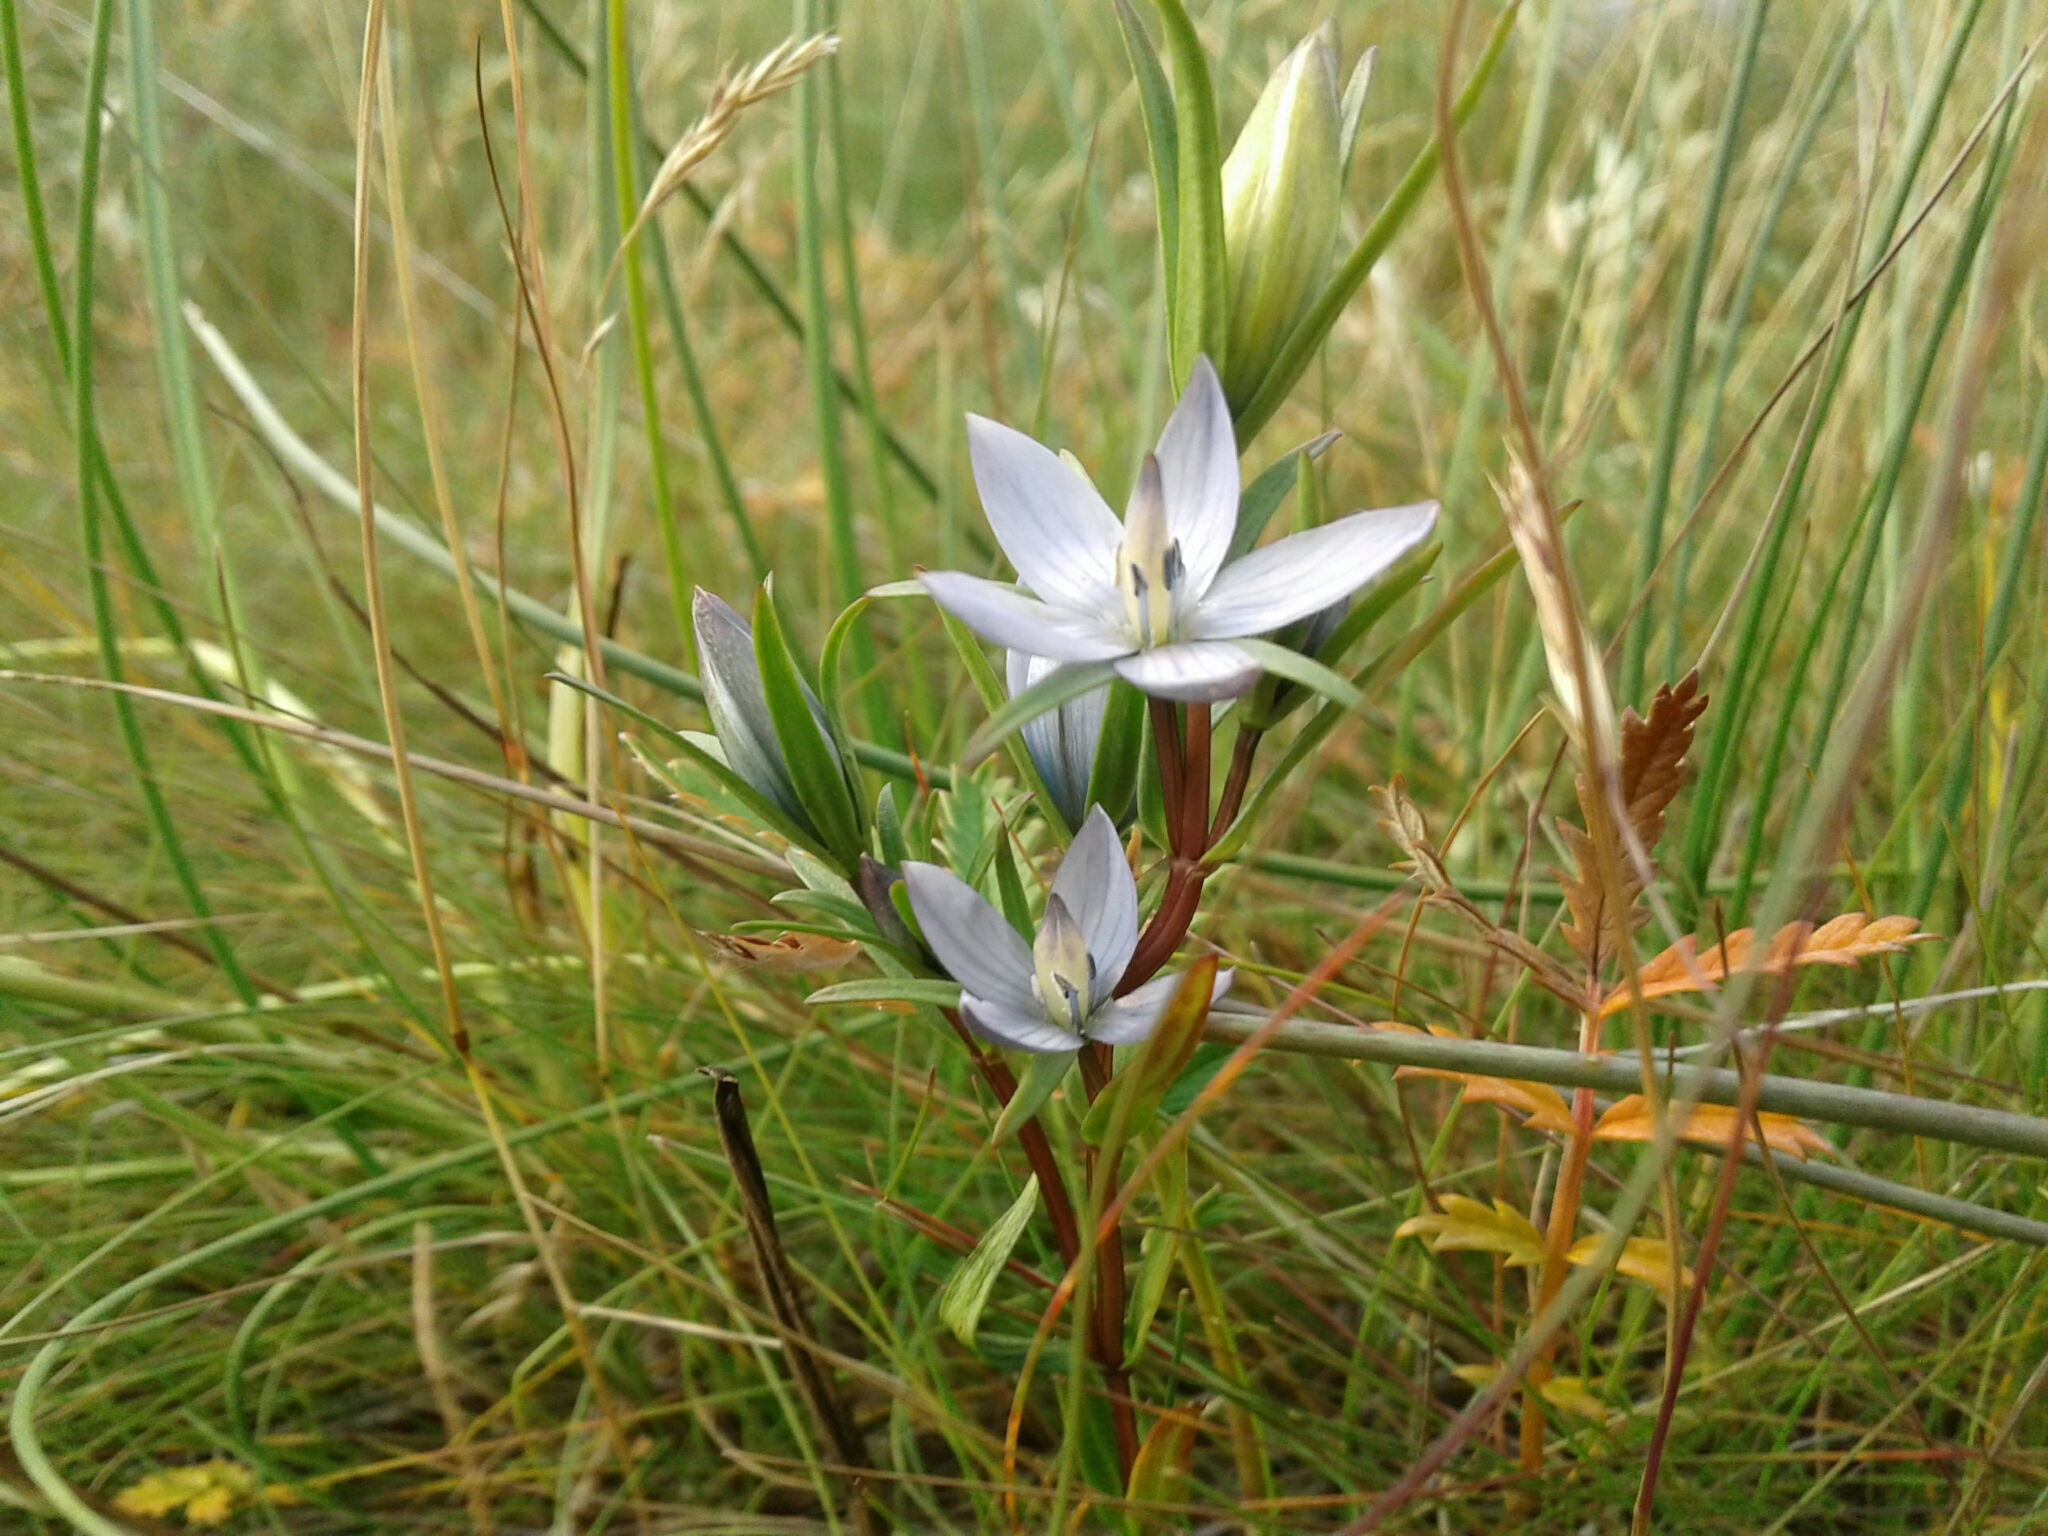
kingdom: Plantae
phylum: Tracheophyta
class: Magnoliopsida
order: Gentianales
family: Gentianaceae
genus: Lomatogonium
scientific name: Lomatogonium rotatum
